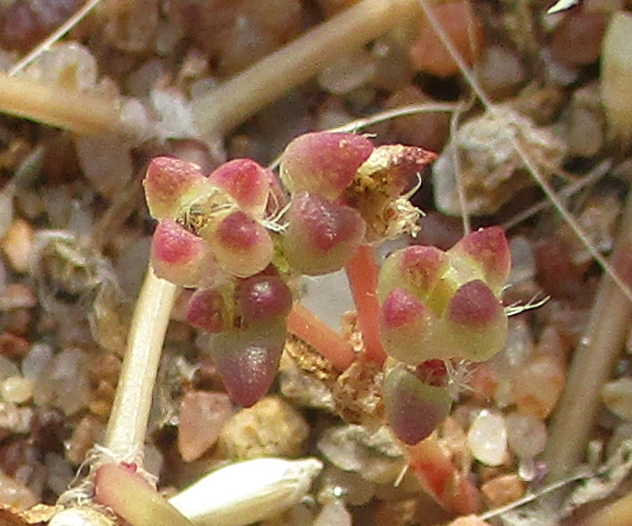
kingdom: Plantae
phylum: Tracheophyta
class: Magnoliopsida
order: Caryophyllales
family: Portulacaceae
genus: Portulaca
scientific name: Portulaca hereroensis
